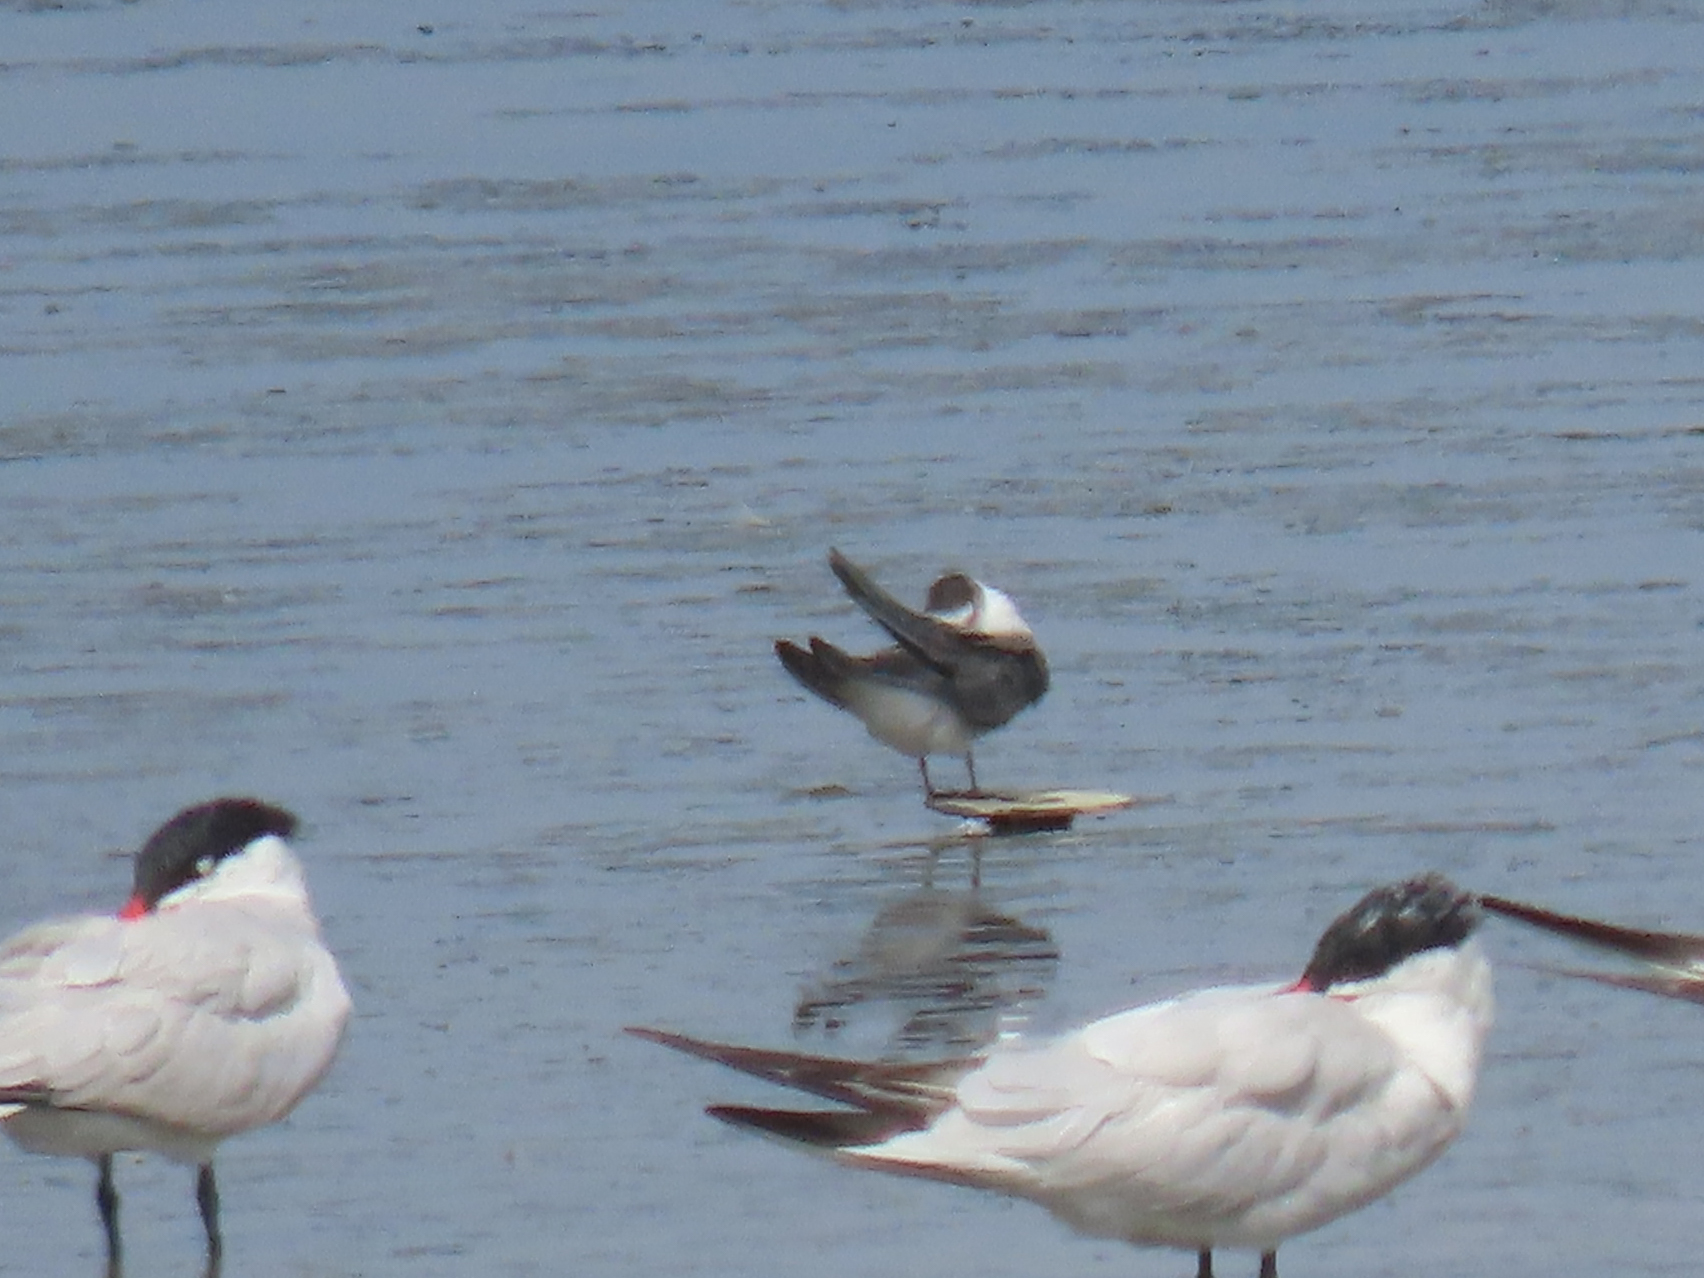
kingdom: Animalia
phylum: Chordata
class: Aves
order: Charadriiformes
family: Laridae
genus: Chlidonias
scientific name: Chlidonias niger
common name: Black tern
